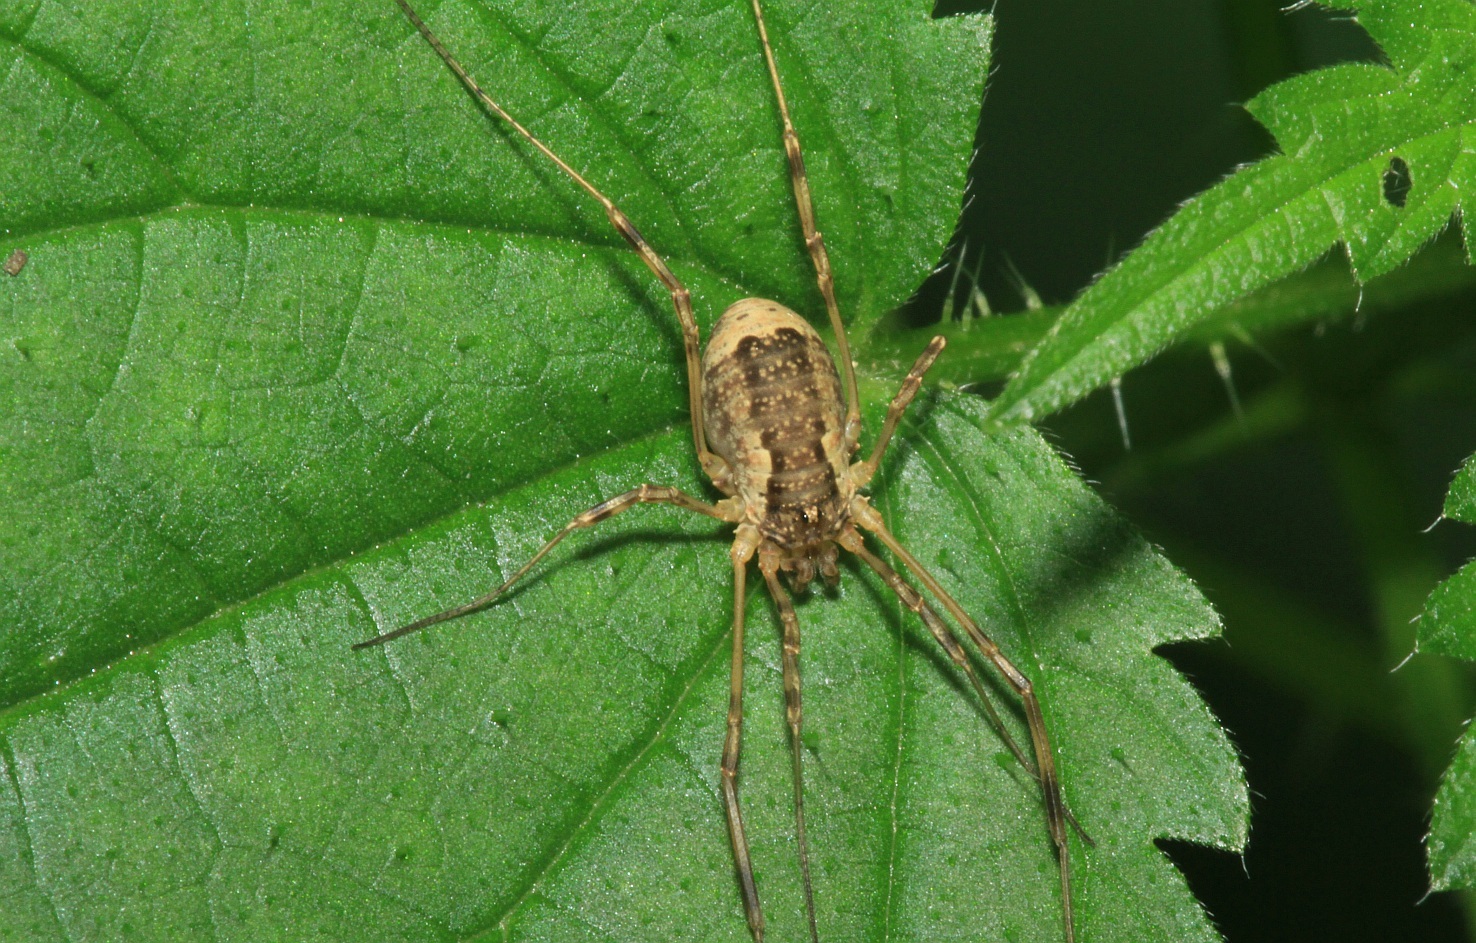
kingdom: Animalia
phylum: Arthropoda
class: Arachnida
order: Opiliones
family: Phalangiidae
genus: Oligolophus
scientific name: Oligolophus tridens
